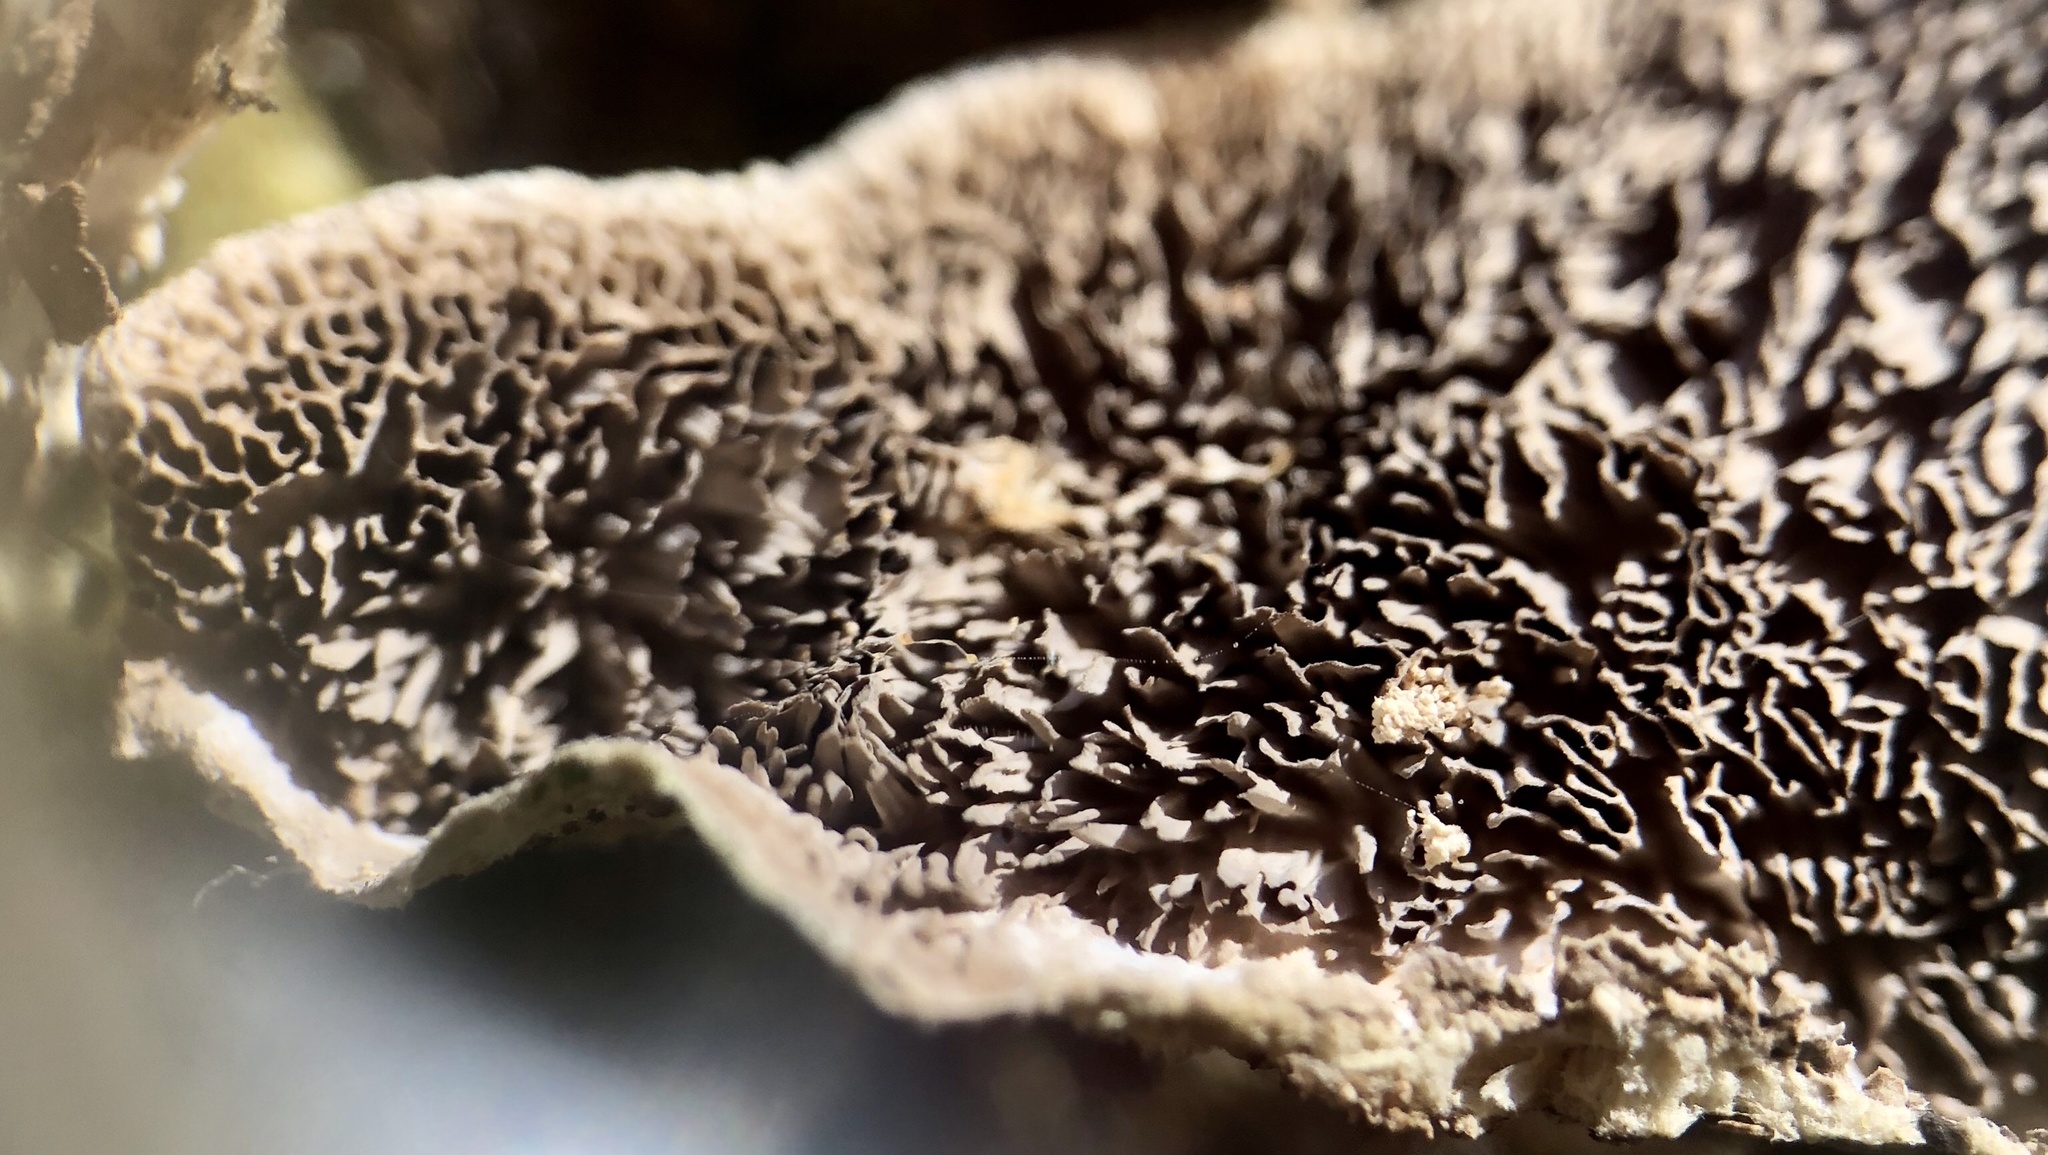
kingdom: Fungi
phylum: Basidiomycota
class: Agaricomycetes
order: Polyporales
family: Cerrenaceae
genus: Cerrena
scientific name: Cerrena unicolor
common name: Mossy maze polypore
